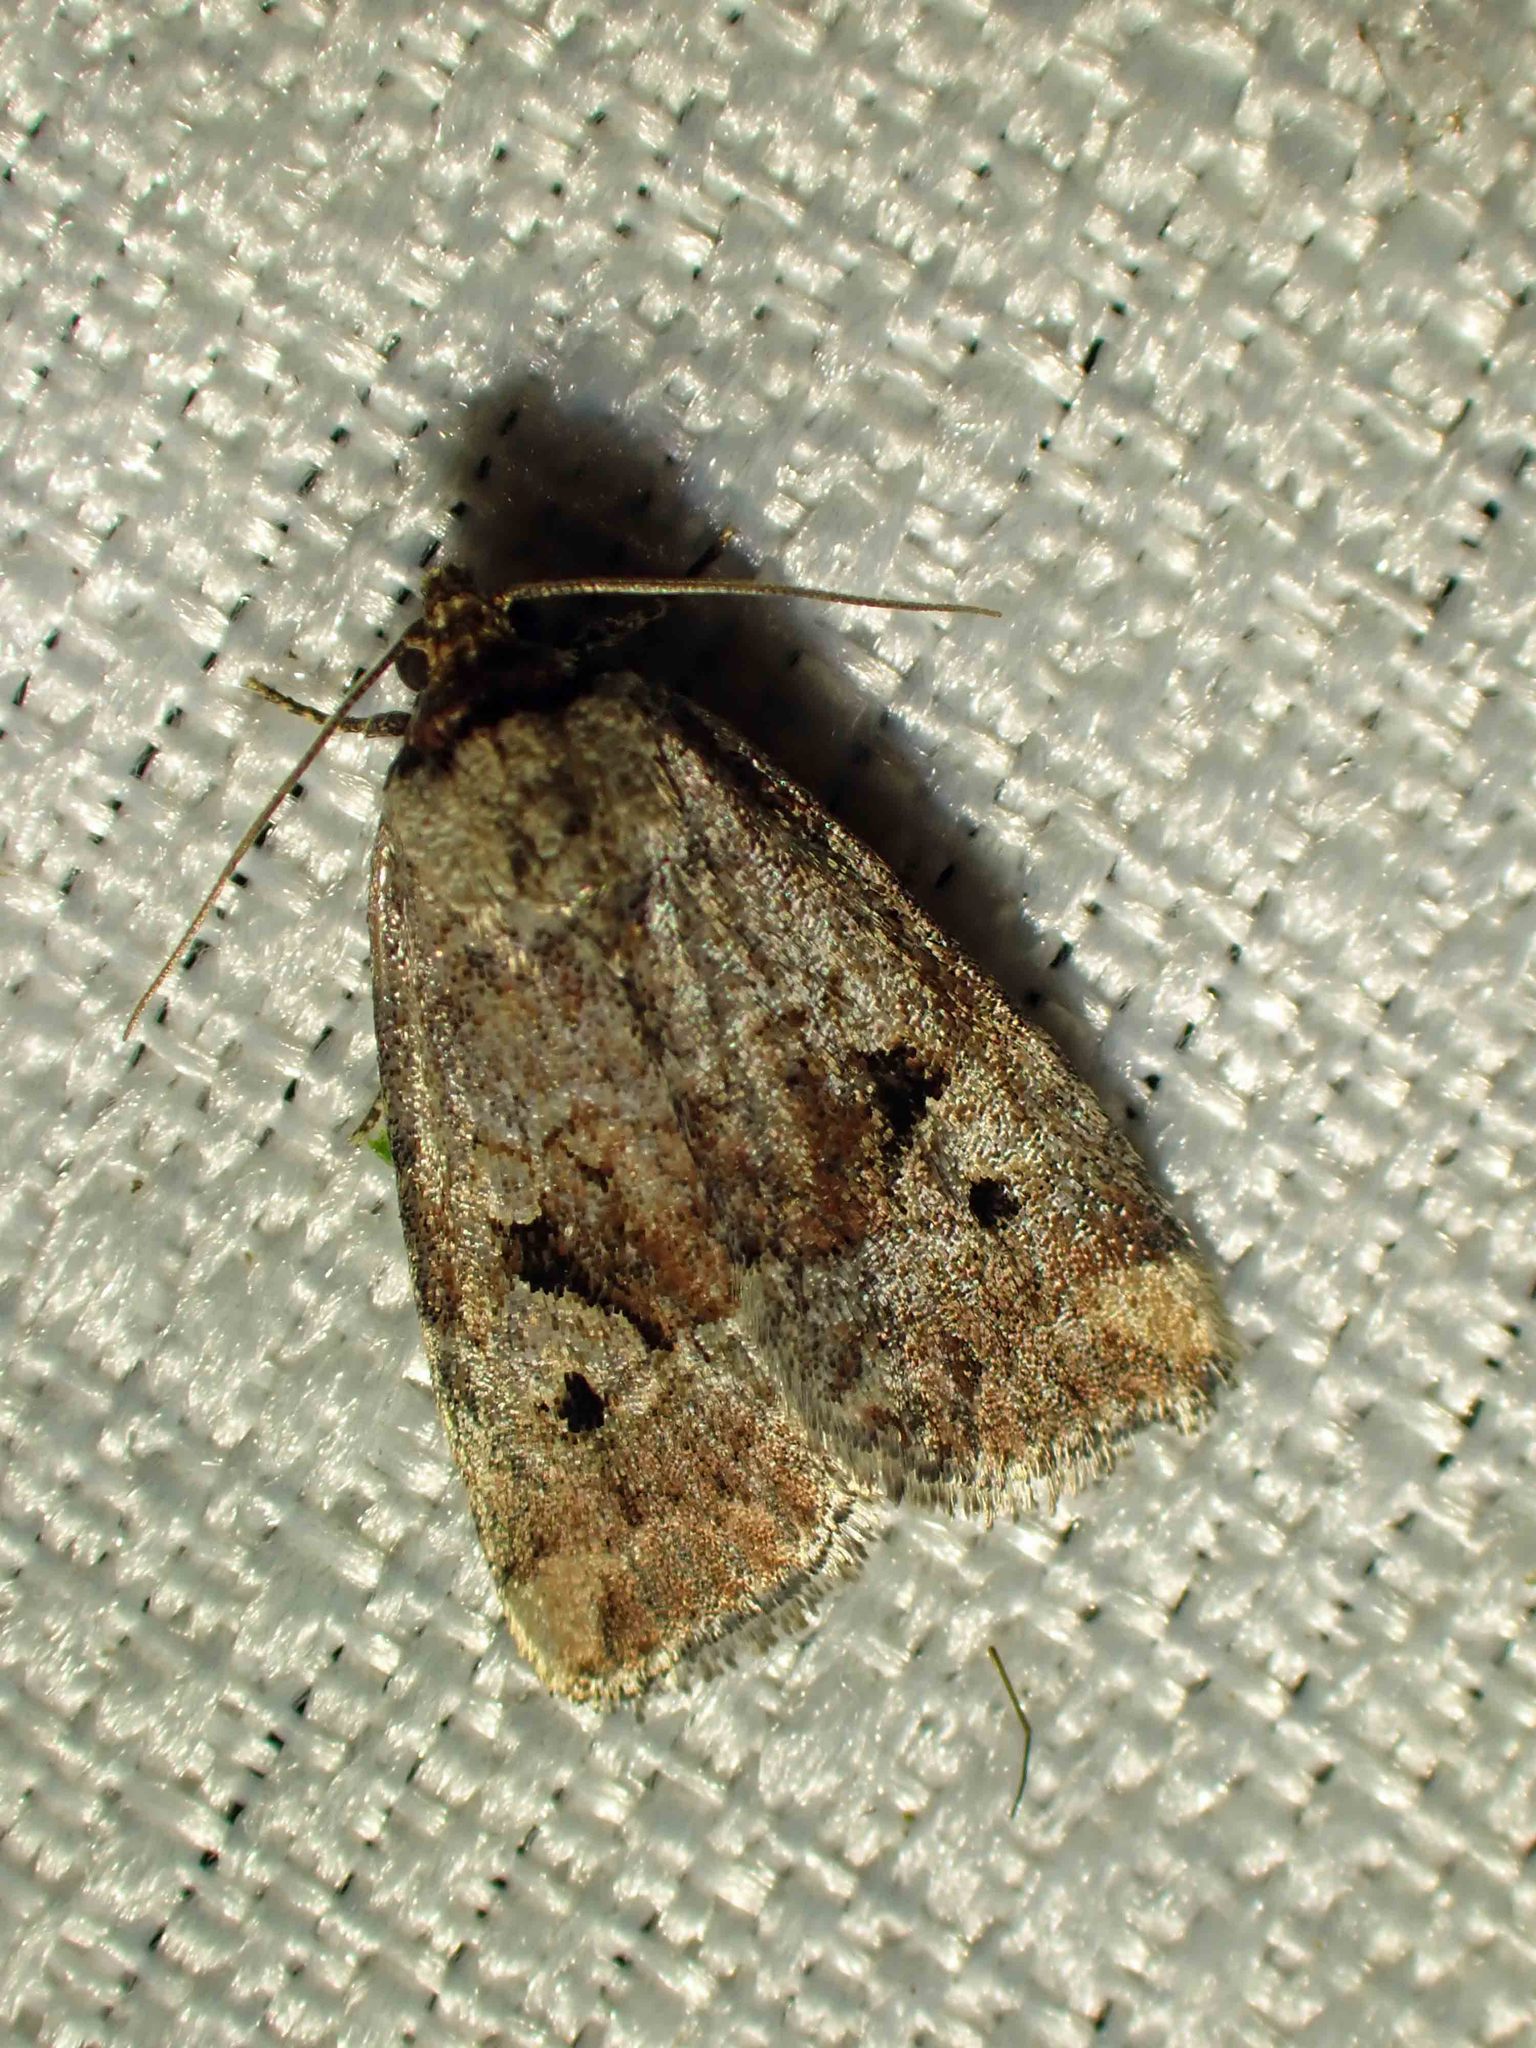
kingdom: Animalia
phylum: Arthropoda
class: Insecta
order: Lepidoptera
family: Noctuidae
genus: Elaphria
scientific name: Elaphria alapallida
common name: Pale-winged midget
